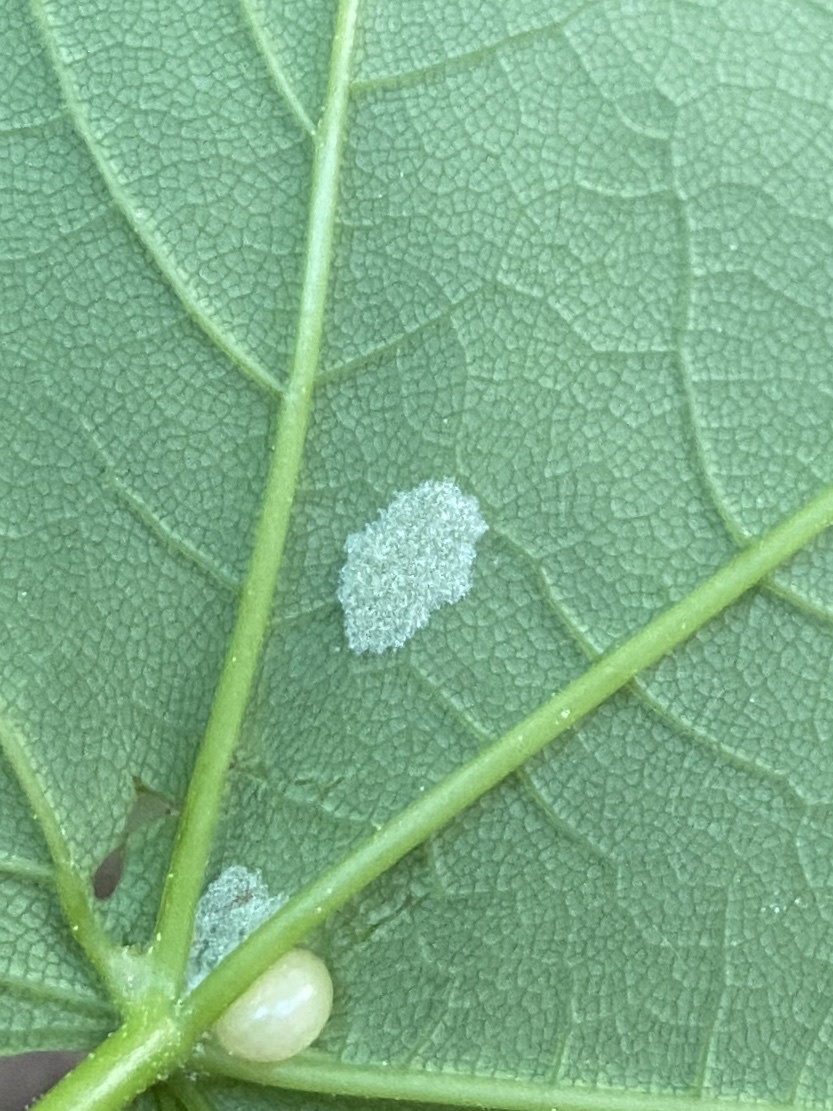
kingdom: Animalia
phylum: Arthropoda
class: Arachnida
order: Trombidiformes
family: Eriophyidae
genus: Aceria
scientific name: Aceria pseudoplatani
